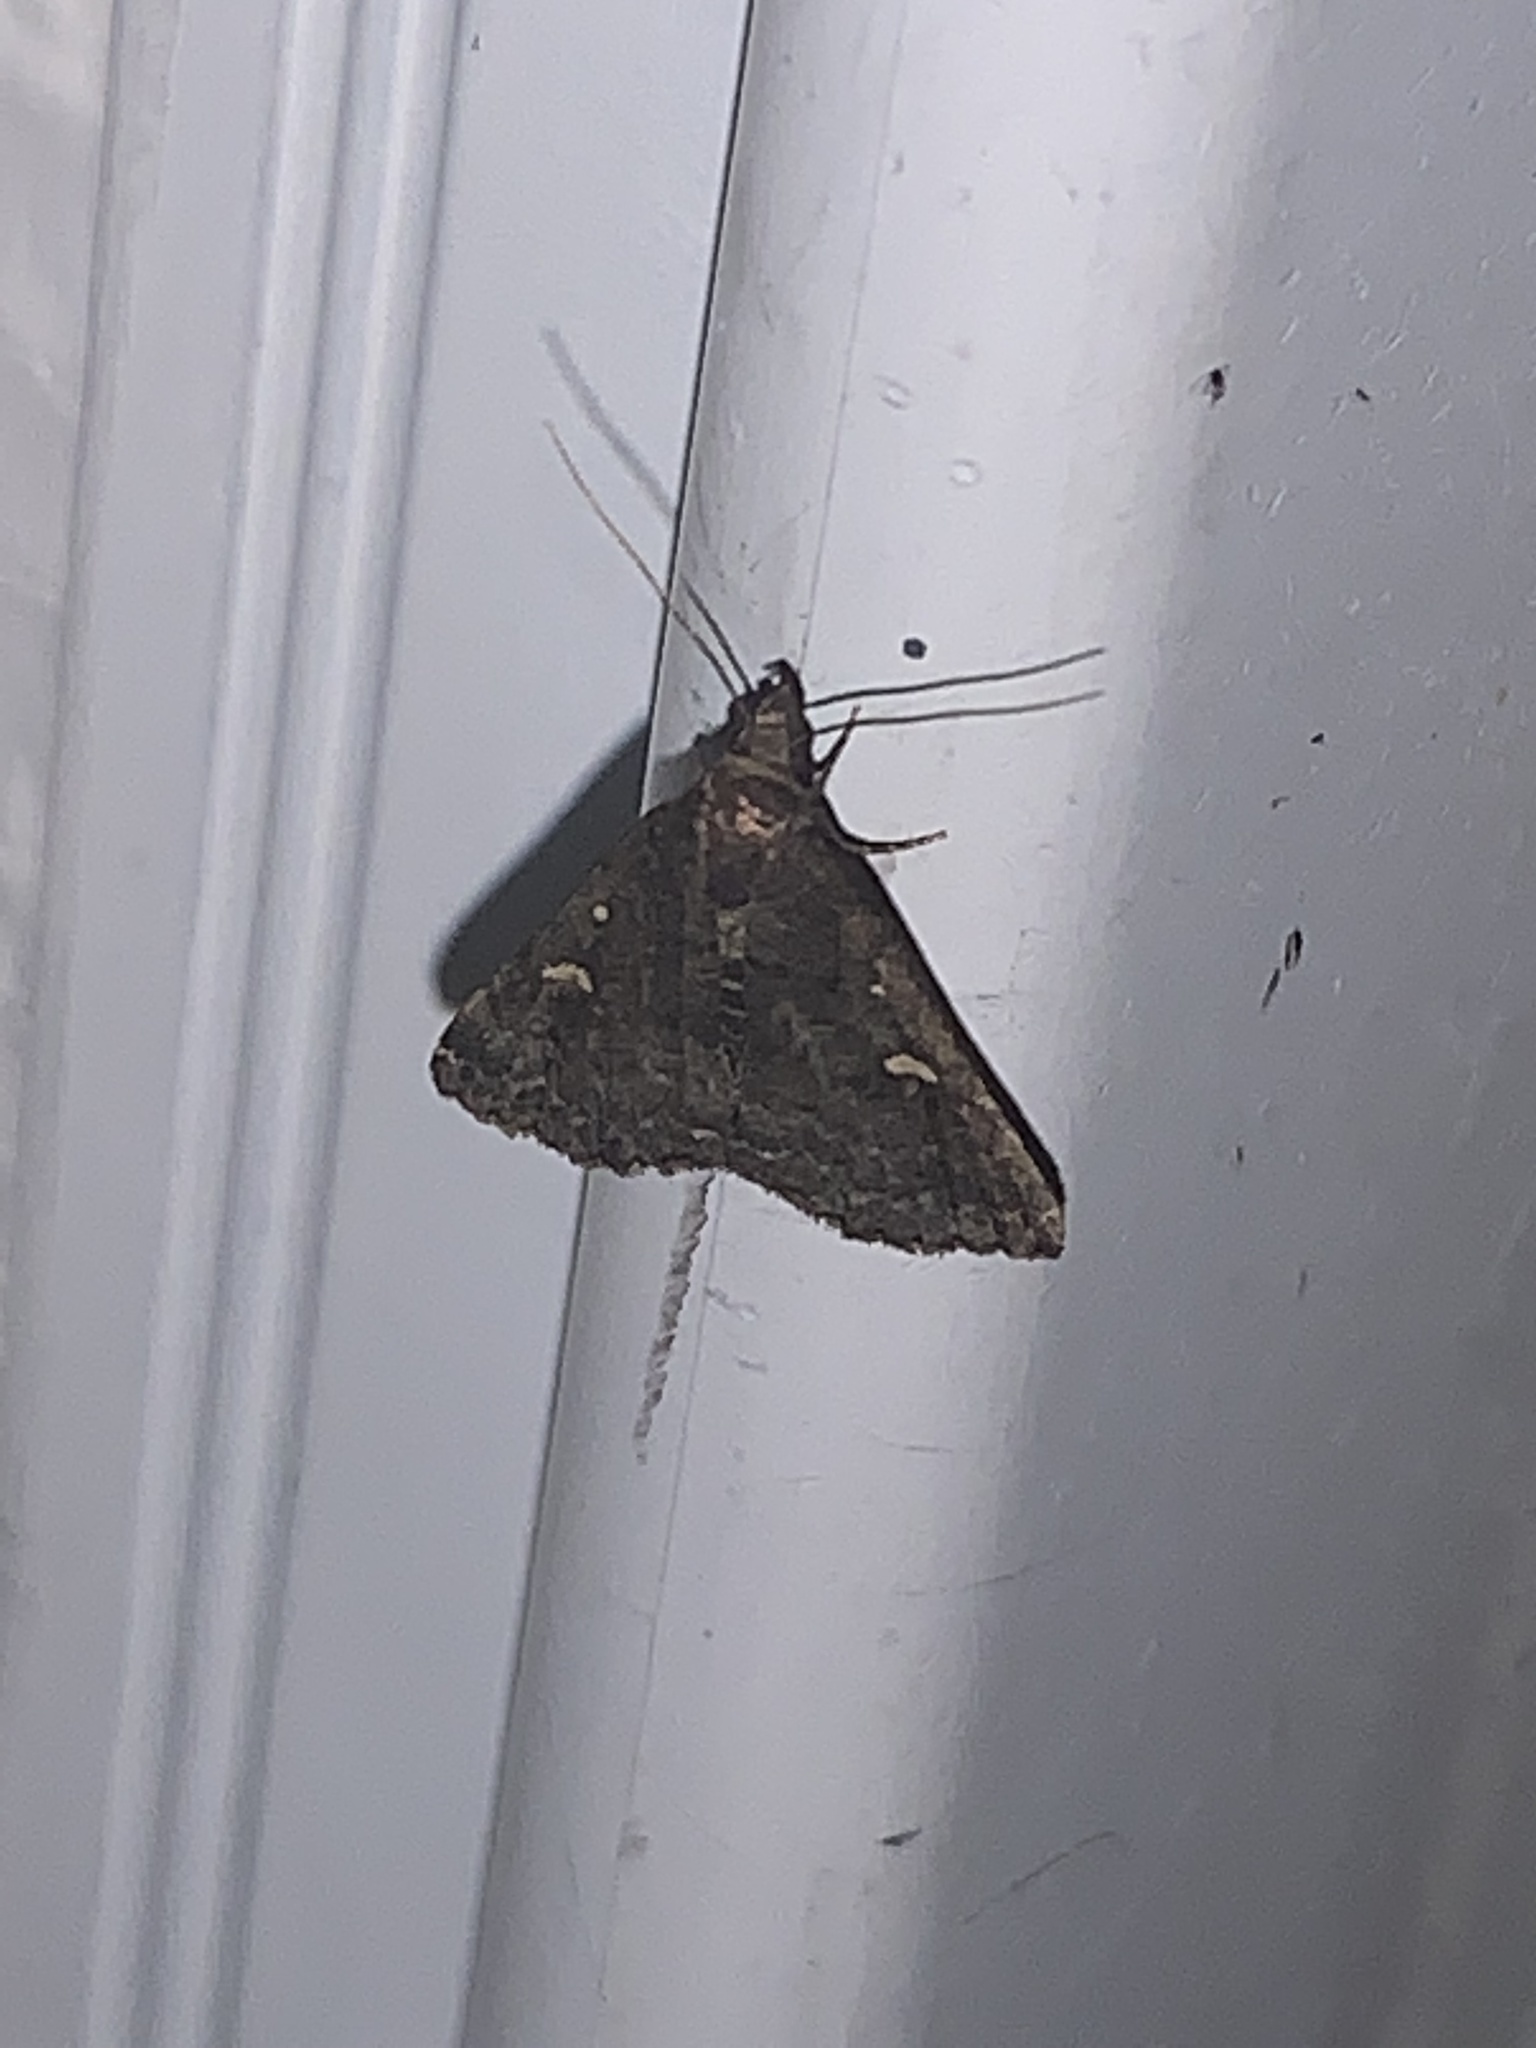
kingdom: Animalia
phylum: Arthropoda
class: Insecta
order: Lepidoptera
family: Erebidae
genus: Tetanolita
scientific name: Tetanolita mynesalis
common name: Smoky tetanolita moth
